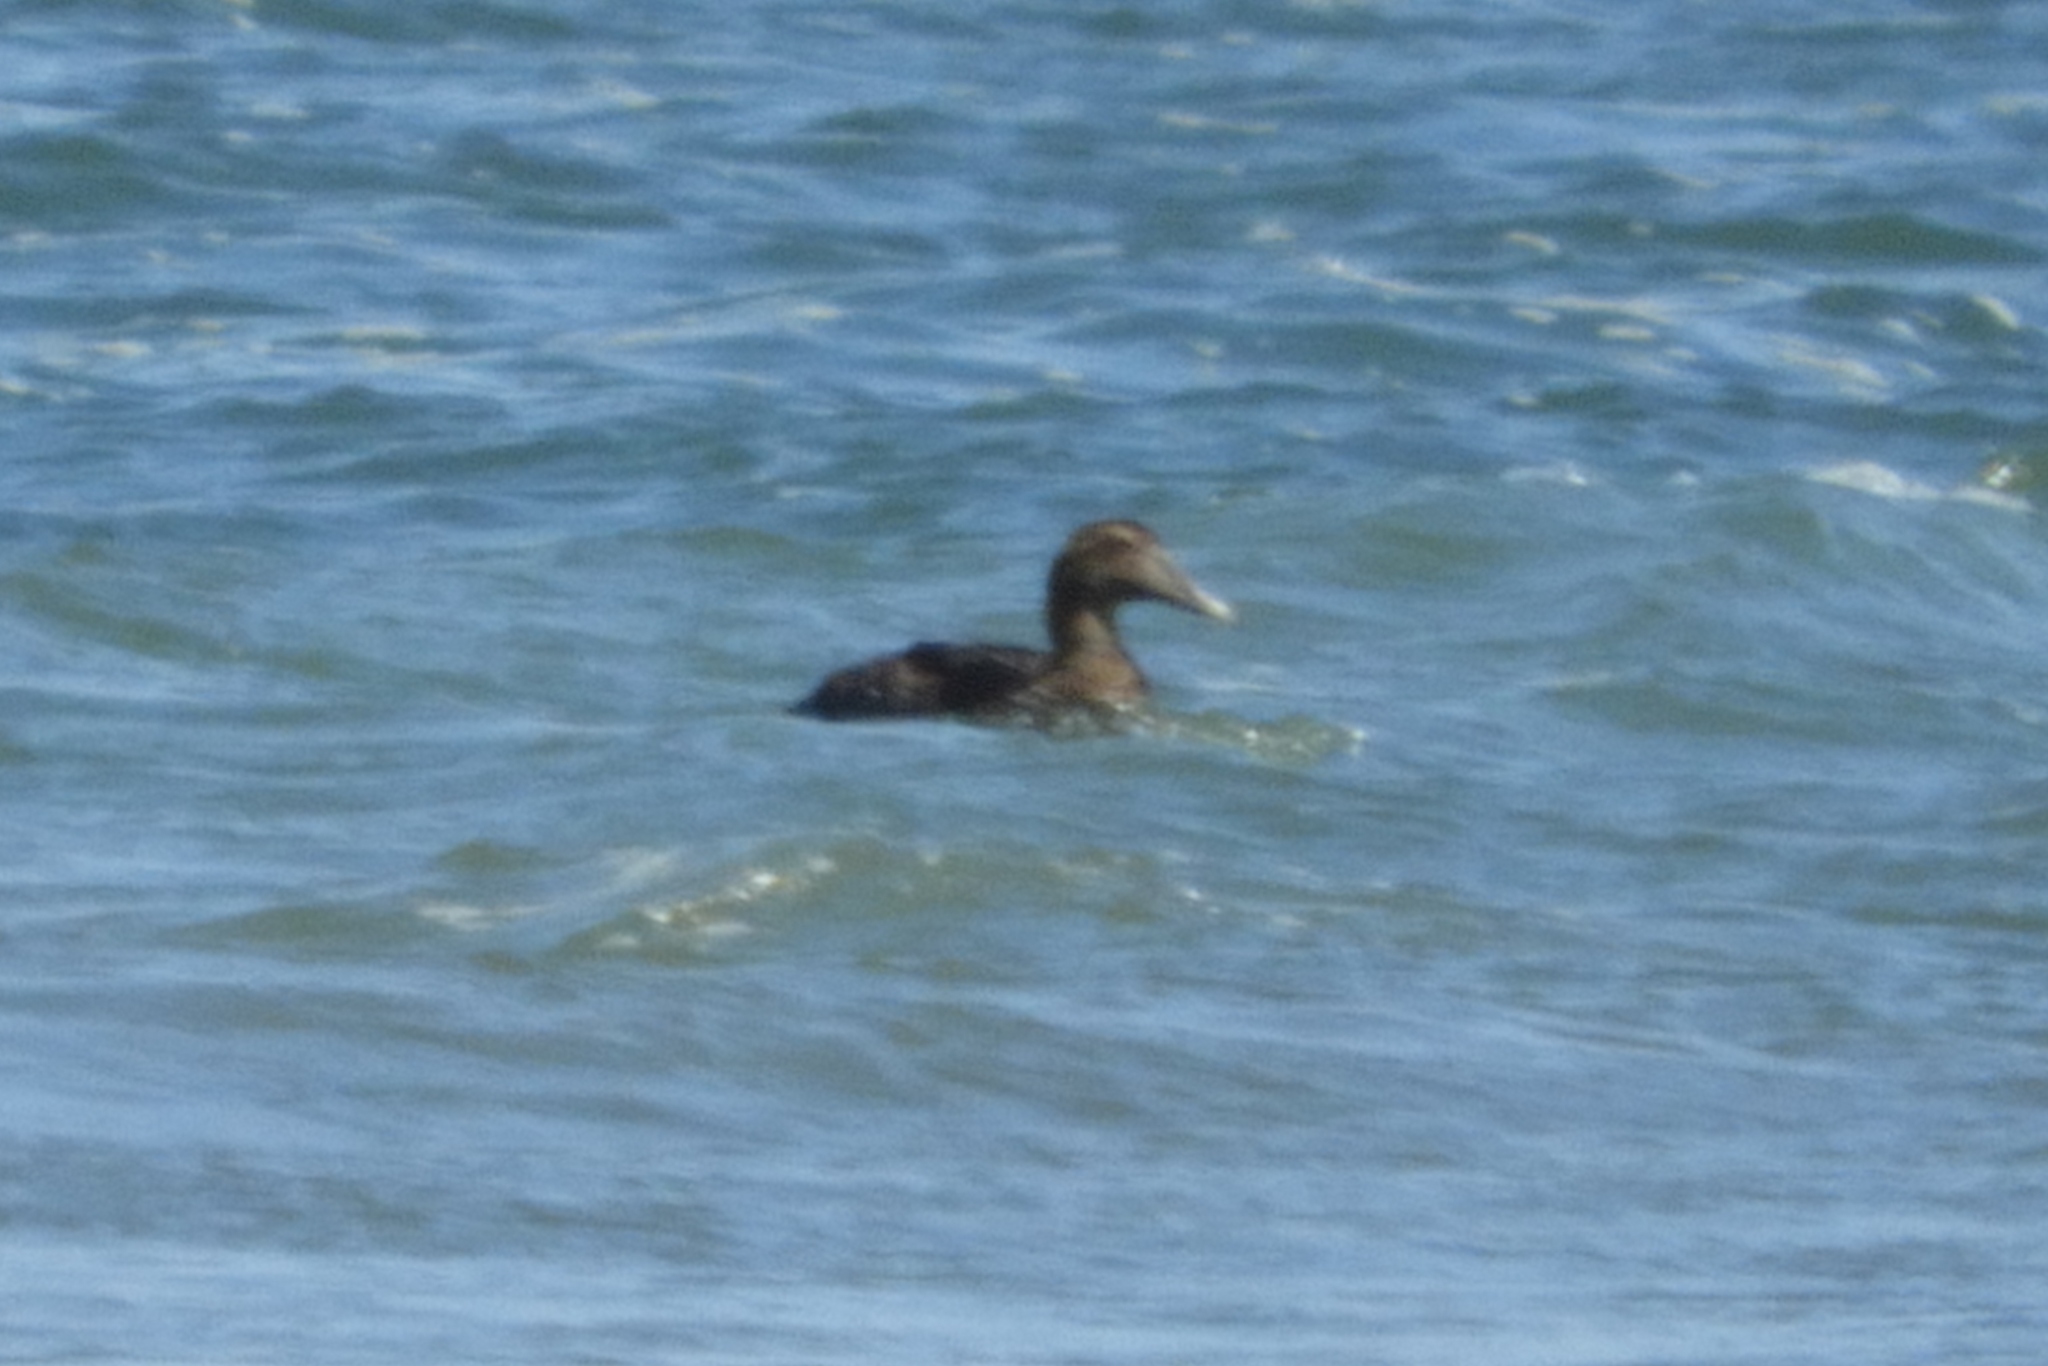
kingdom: Animalia
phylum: Chordata
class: Aves
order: Anseriformes
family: Anatidae
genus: Somateria
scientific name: Somateria mollissima
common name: Common eider
